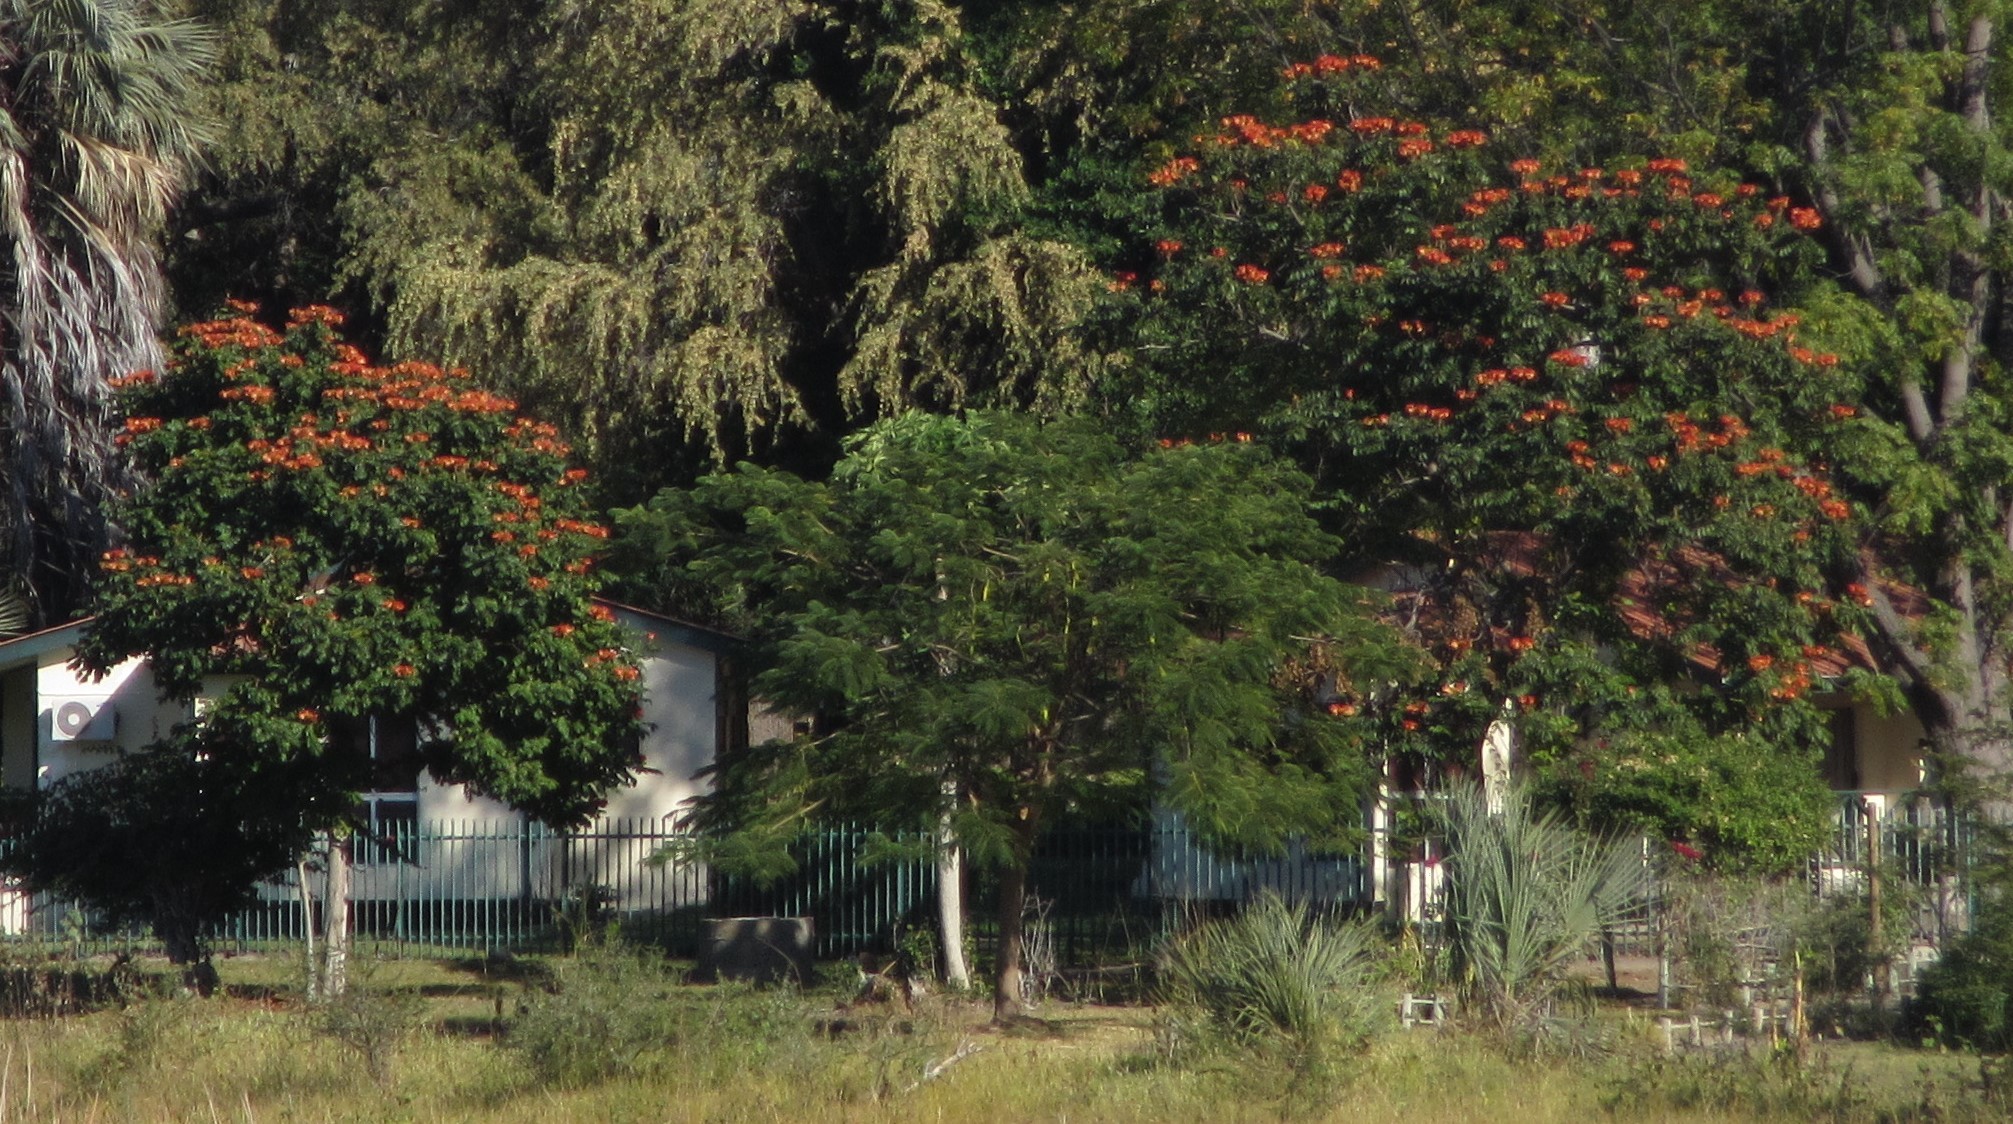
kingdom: Plantae
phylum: Tracheophyta
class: Magnoliopsida
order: Lamiales
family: Bignoniaceae
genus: Spathodea
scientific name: Spathodea campanulata
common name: African tuliptree
